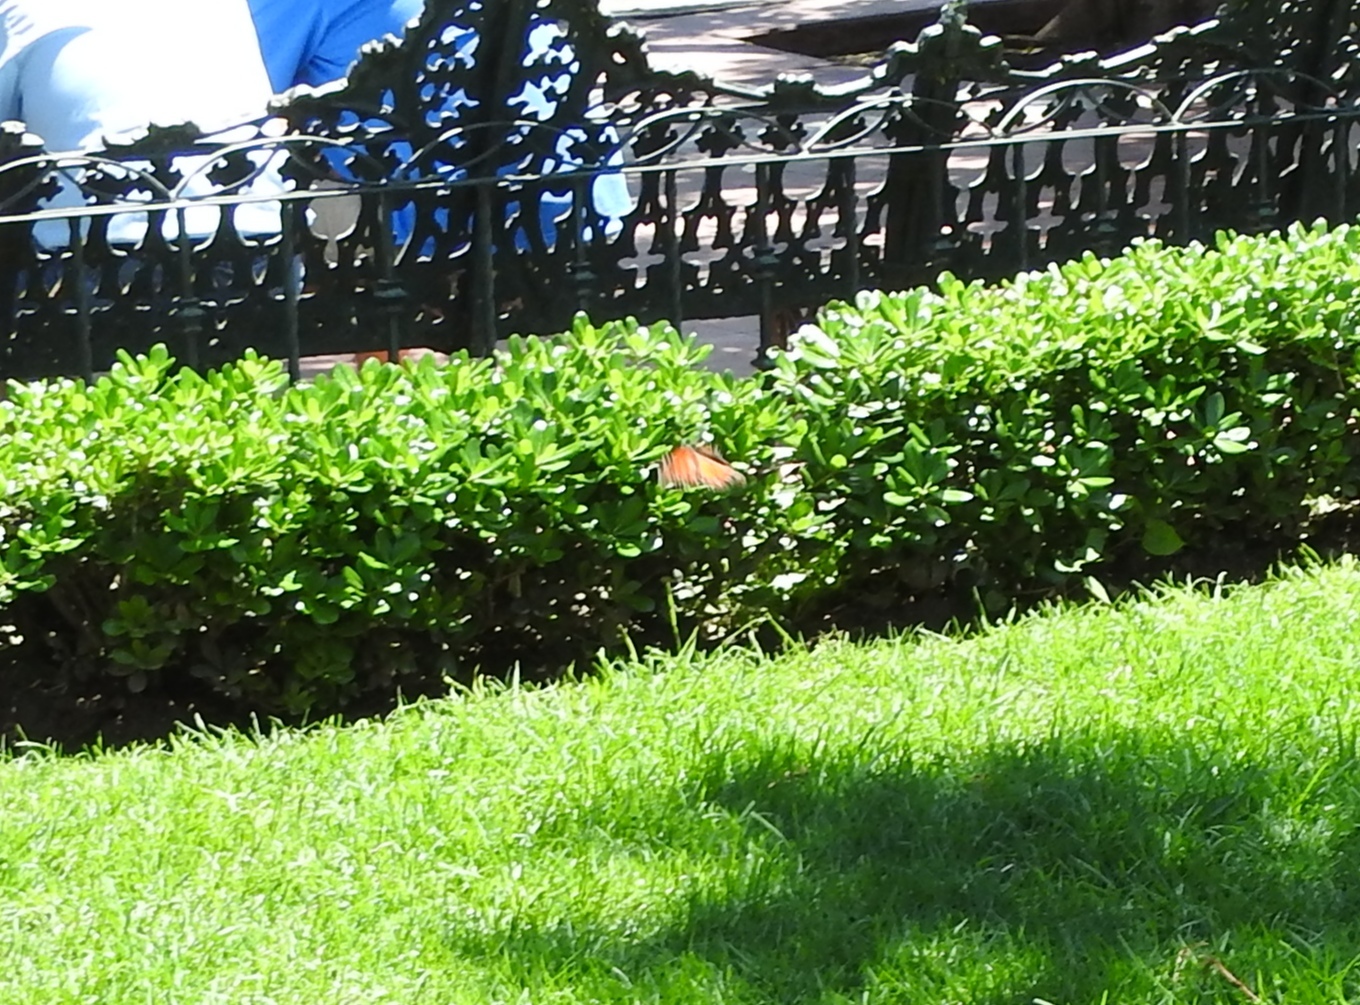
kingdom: Animalia
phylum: Arthropoda
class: Insecta
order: Lepidoptera
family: Nymphalidae
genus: Danaus
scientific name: Danaus plexippus
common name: Monarch
